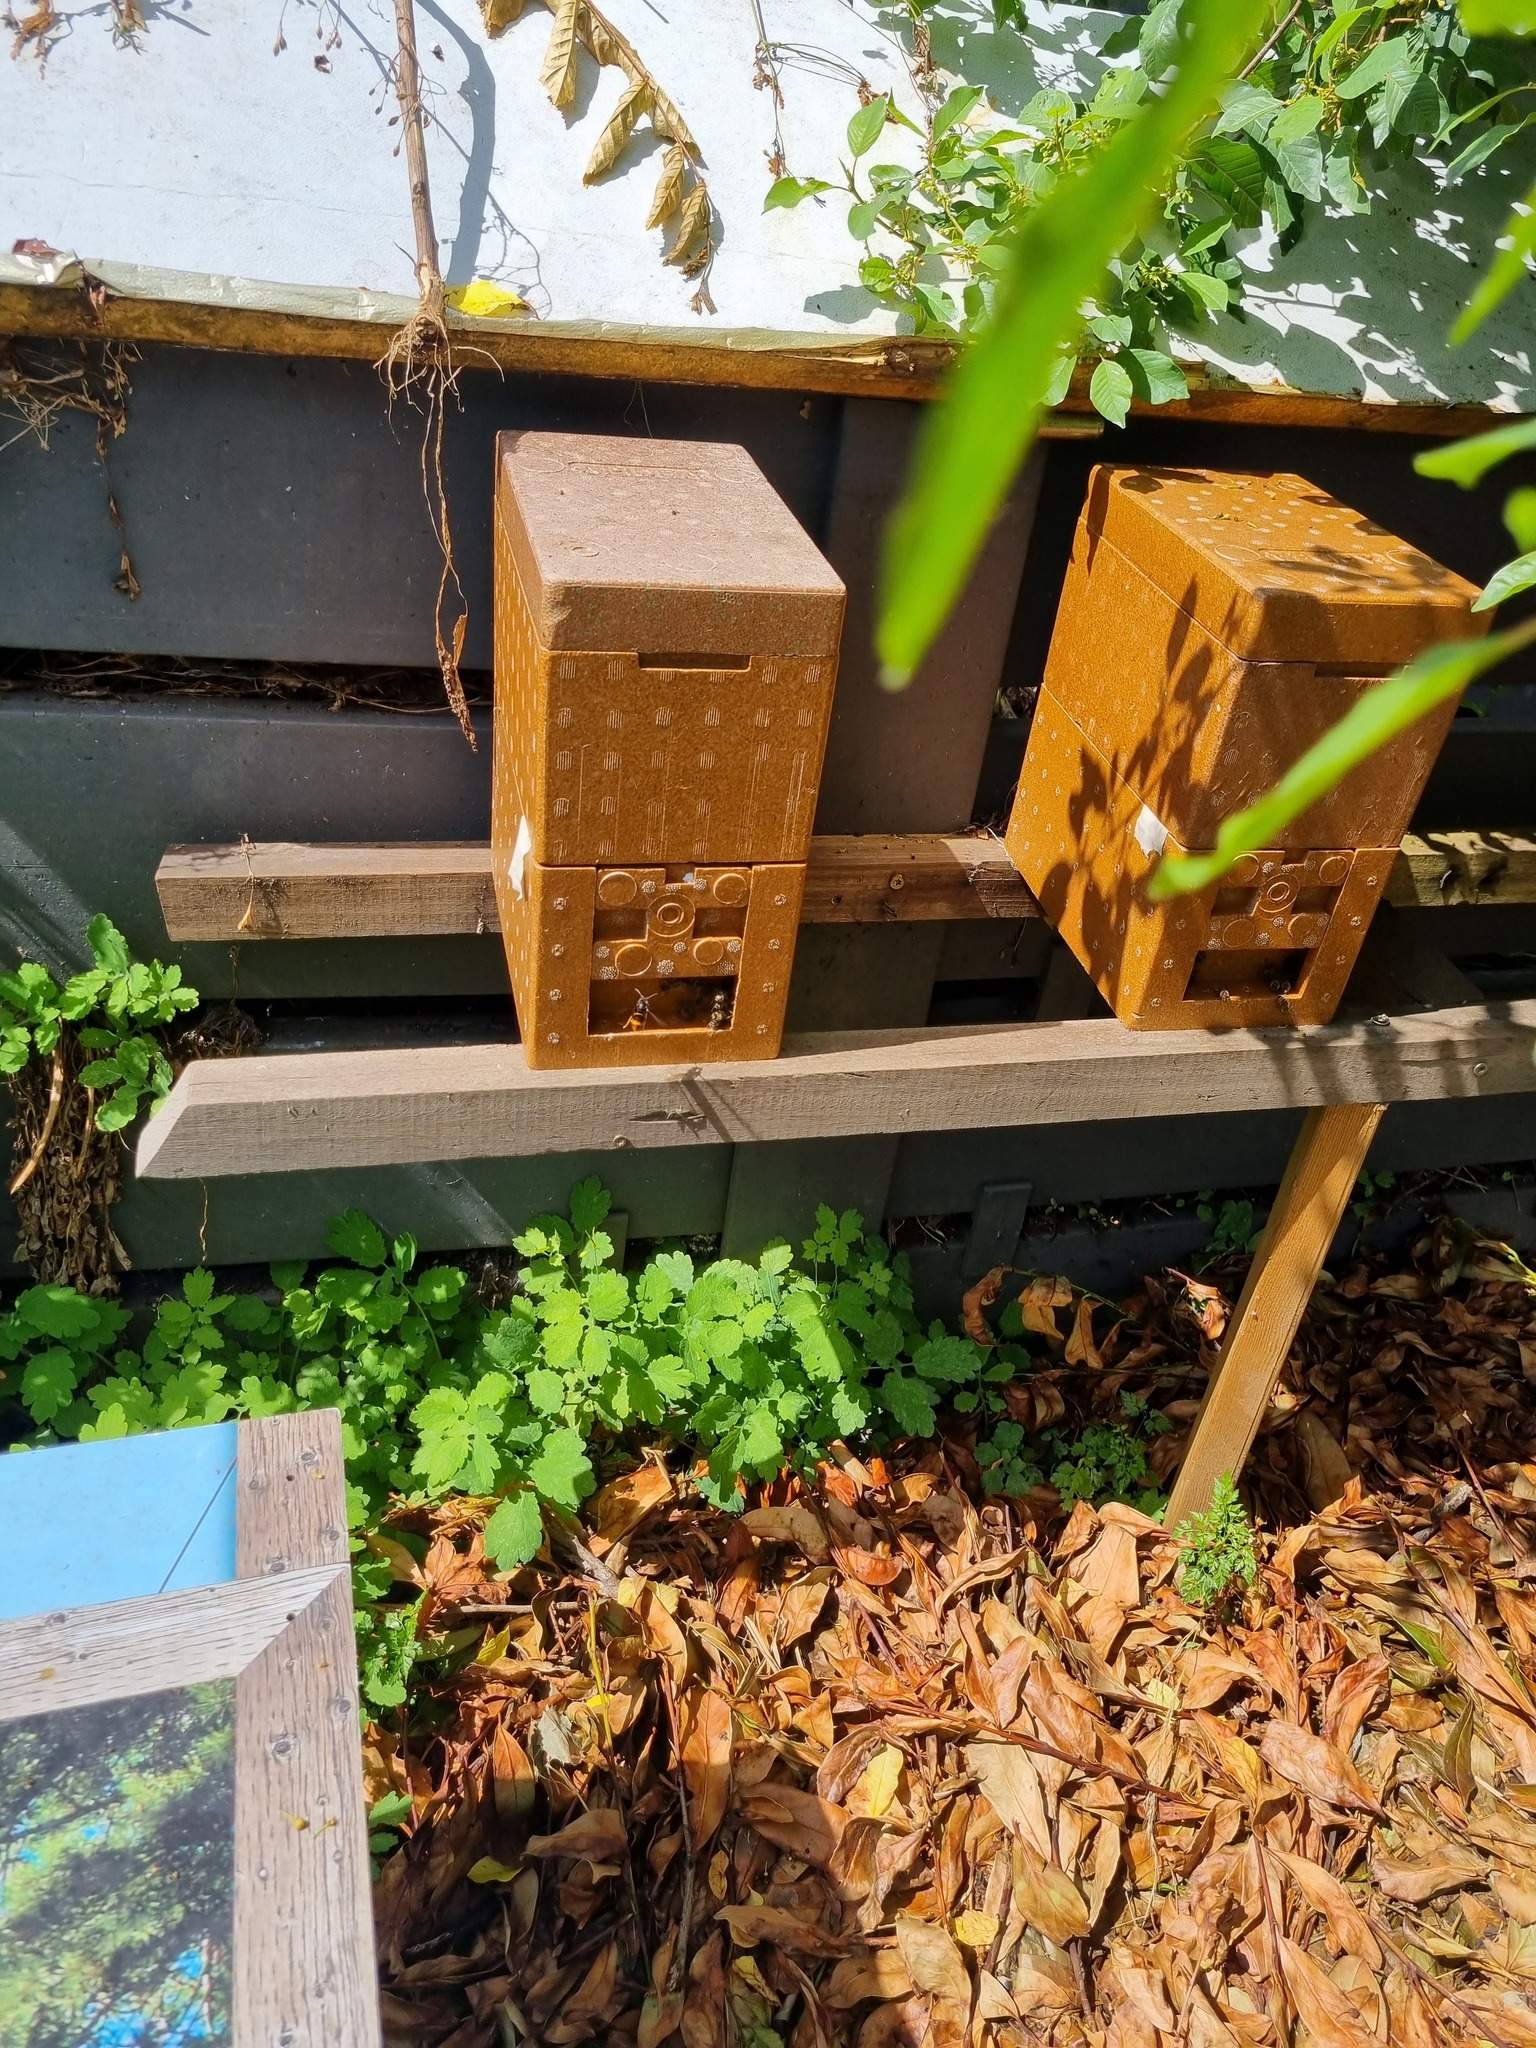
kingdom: Animalia
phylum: Arthropoda
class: Insecta
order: Hymenoptera
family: Vespidae
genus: Vespa
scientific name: Vespa velutina
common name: Asian hornet
